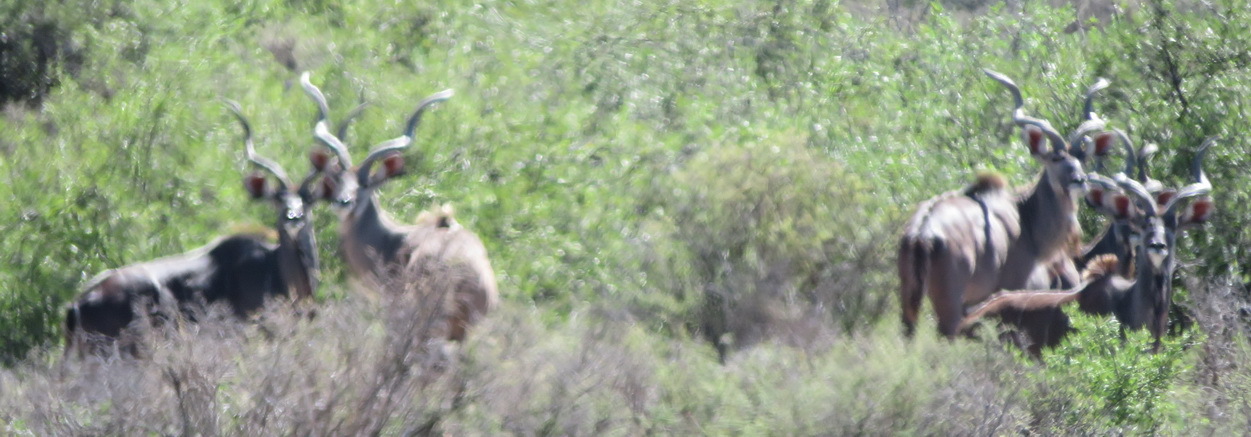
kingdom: Animalia
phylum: Chordata
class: Mammalia
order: Artiodactyla
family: Bovidae
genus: Tragelaphus
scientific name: Tragelaphus strepsiceros
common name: Greater kudu
